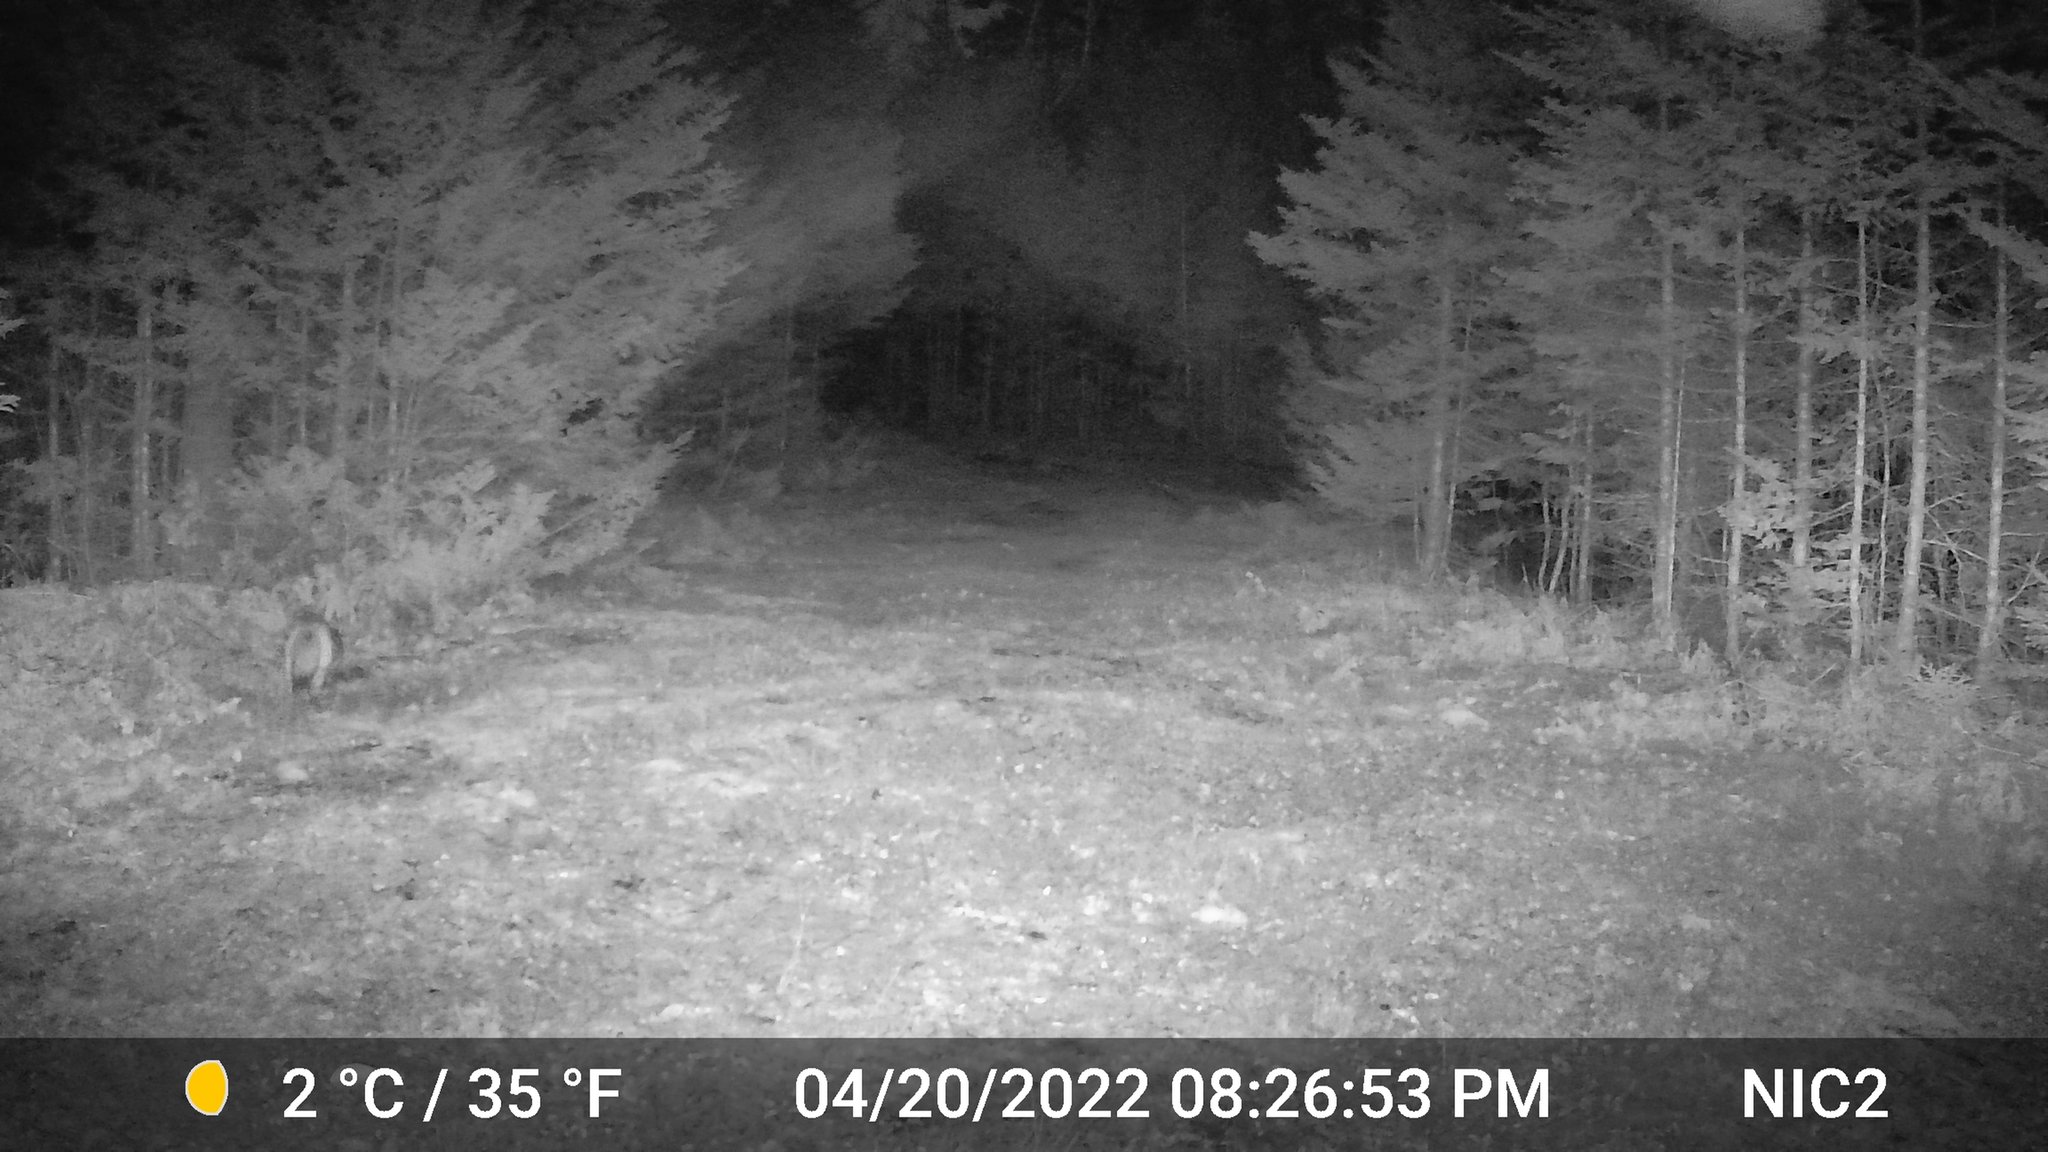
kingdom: Animalia
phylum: Chordata
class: Mammalia
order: Carnivora
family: Canidae
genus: Canis
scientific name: Canis latrans
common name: Coyote
